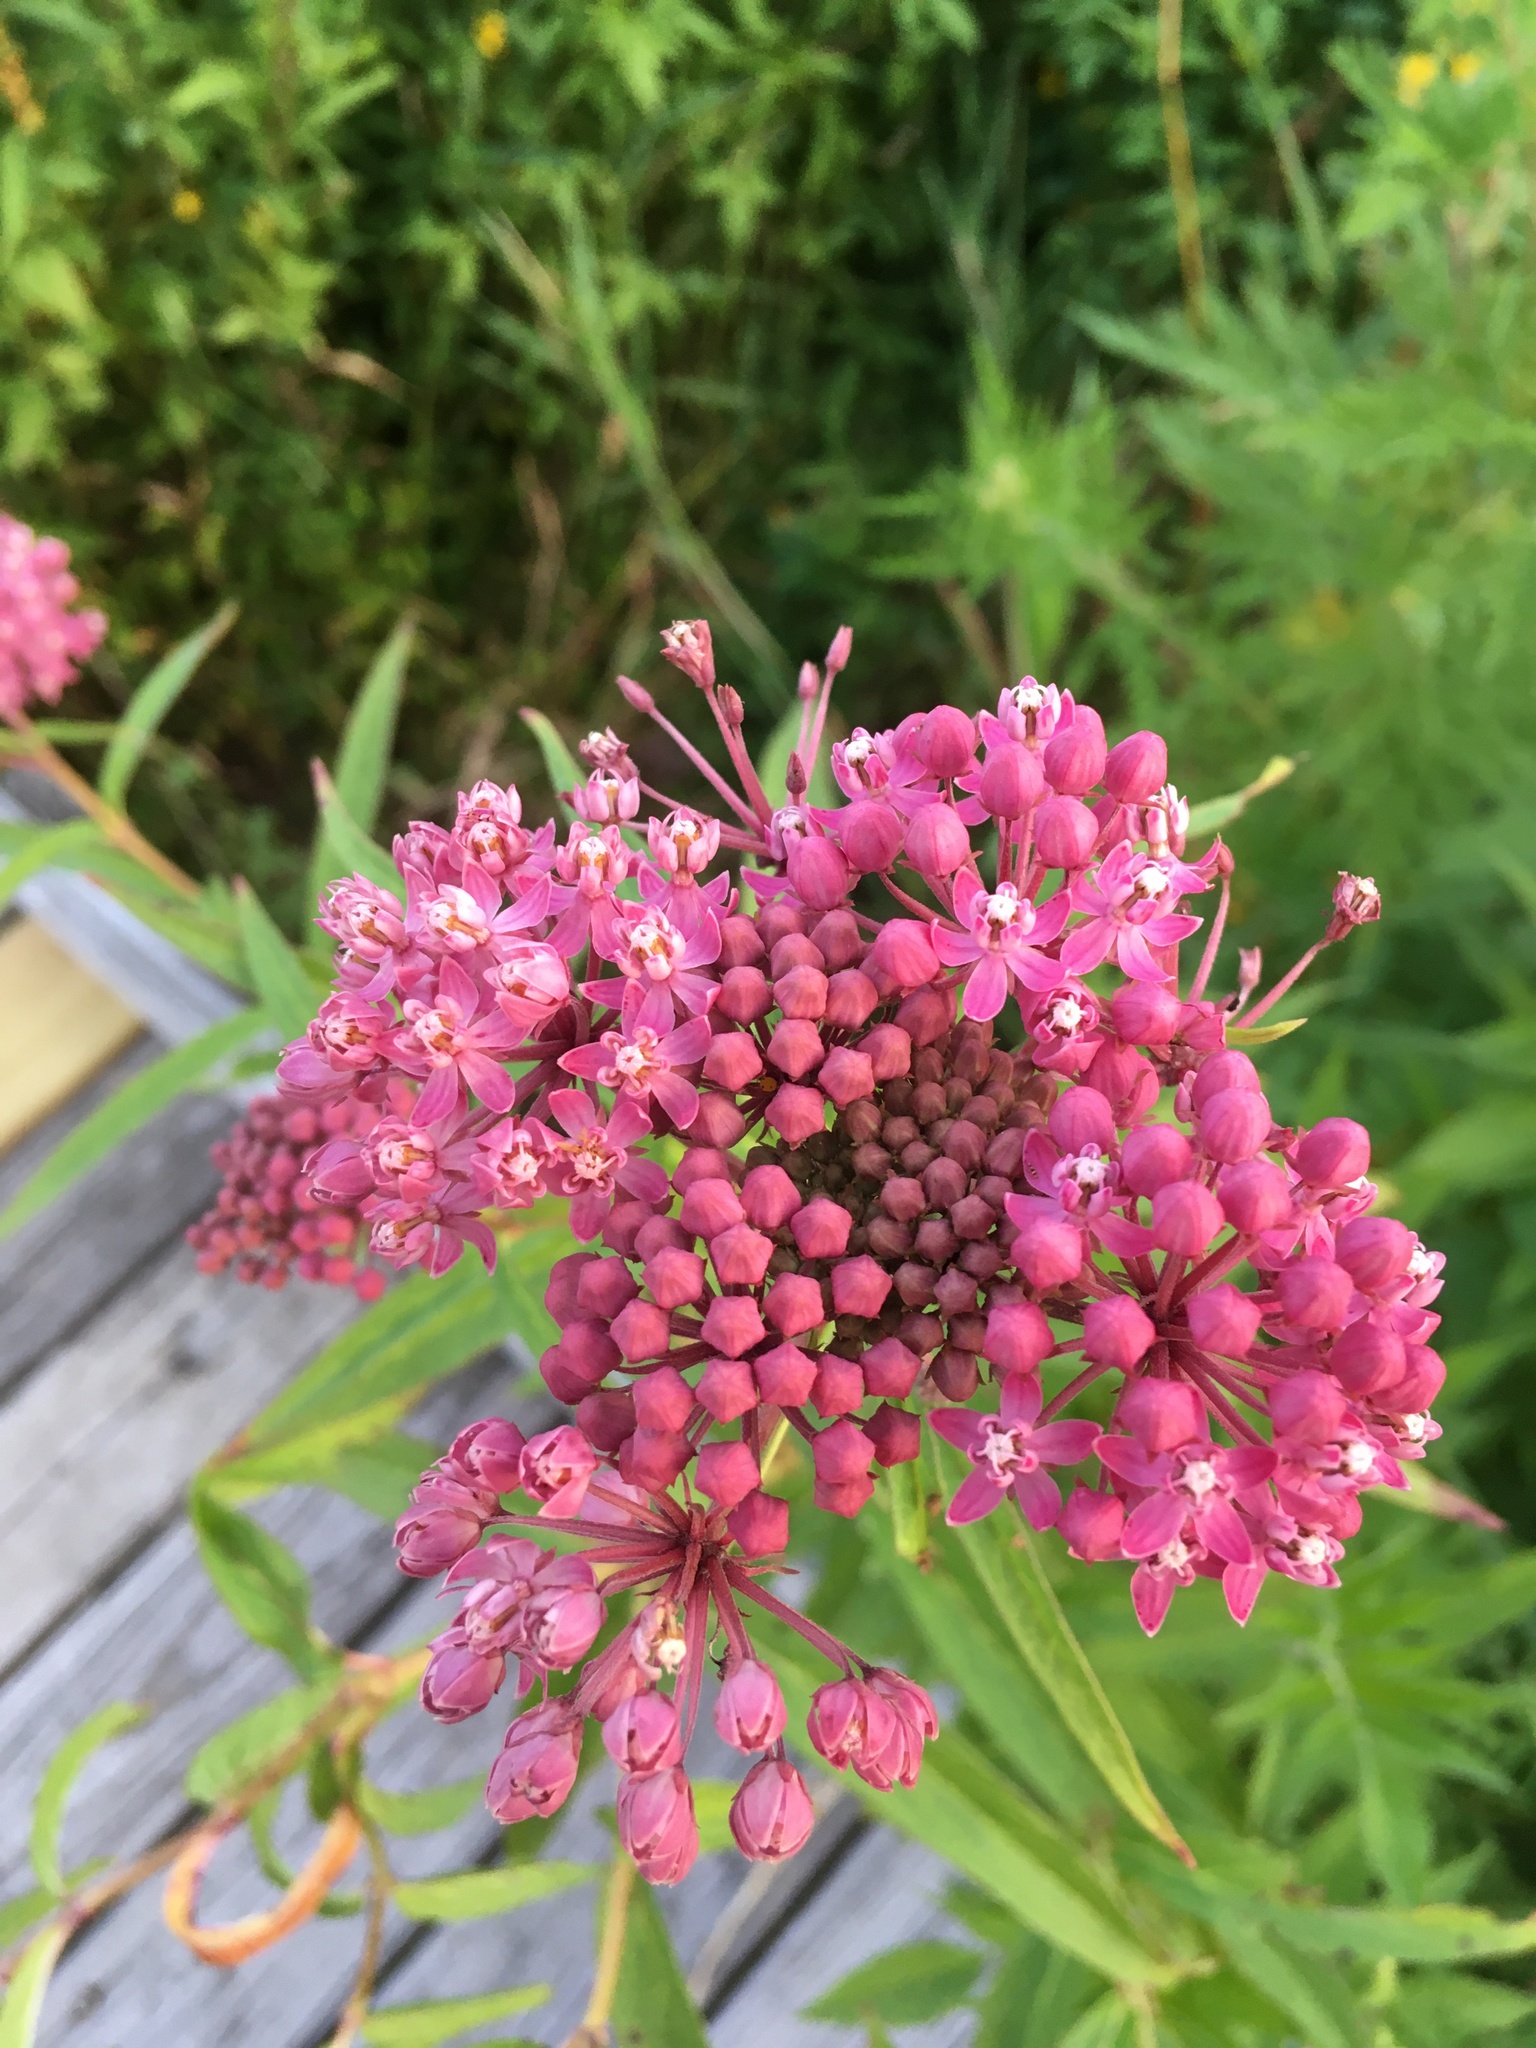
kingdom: Plantae
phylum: Tracheophyta
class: Magnoliopsida
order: Gentianales
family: Apocynaceae
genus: Asclepias
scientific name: Asclepias incarnata
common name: Swamp milkweed
